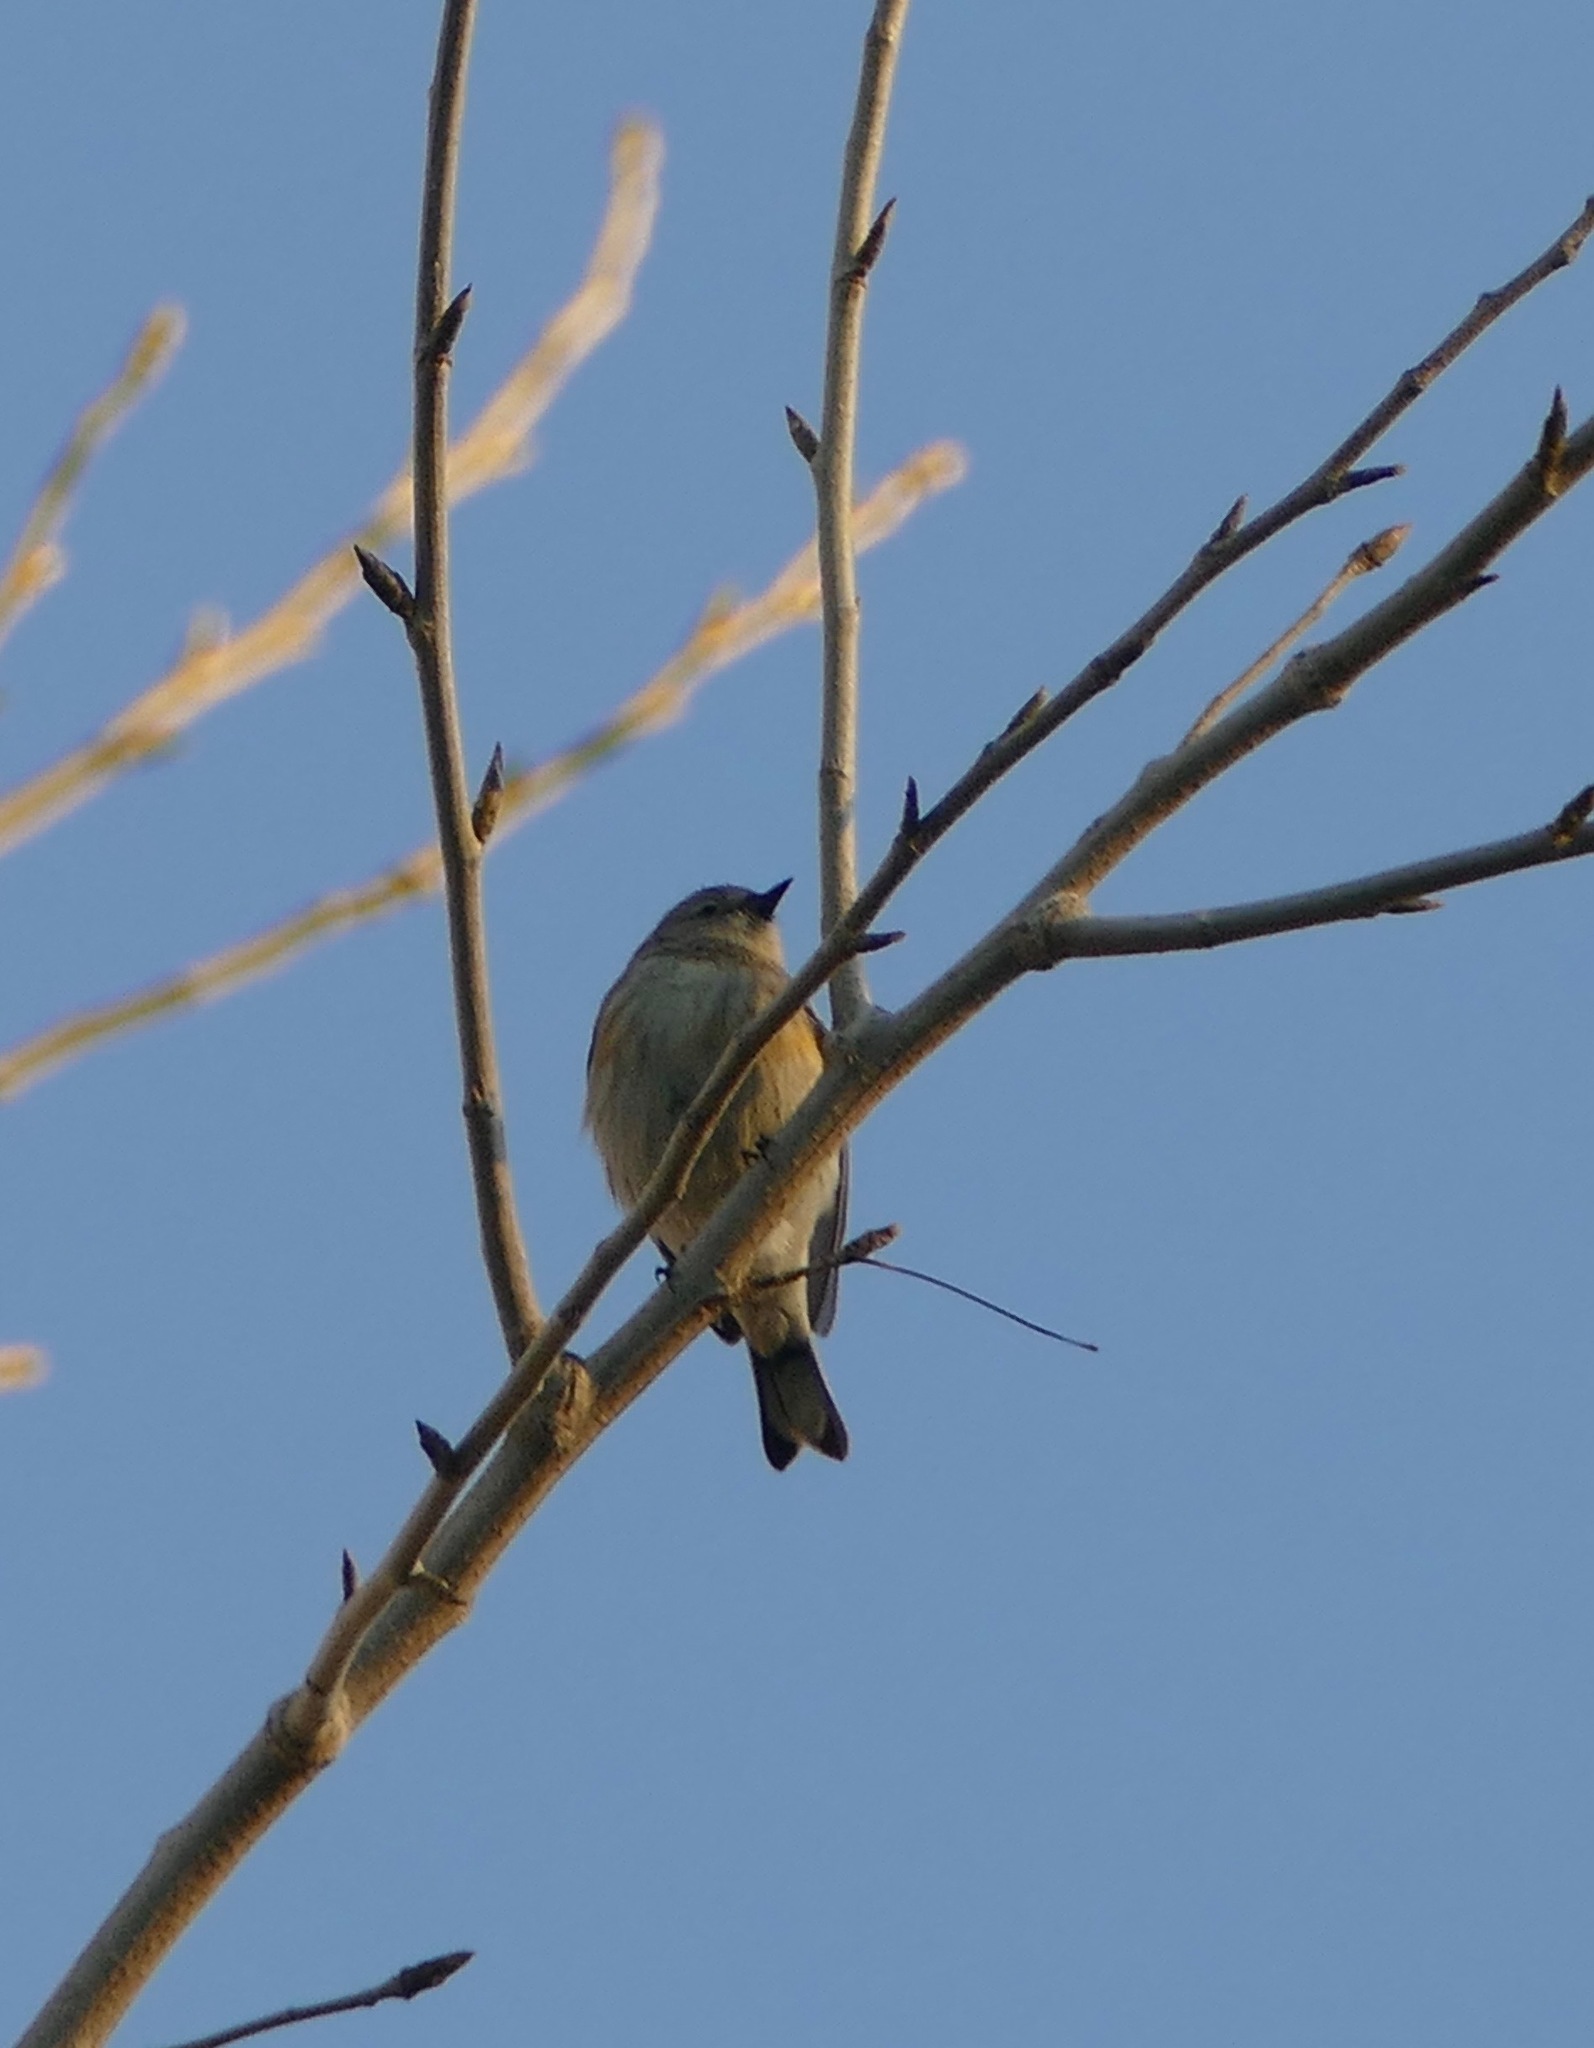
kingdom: Animalia
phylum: Chordata
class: Aves
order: Passeriformes
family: Parulidae
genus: Setophaga
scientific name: Setophaga coronata
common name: Myrtle warbler
